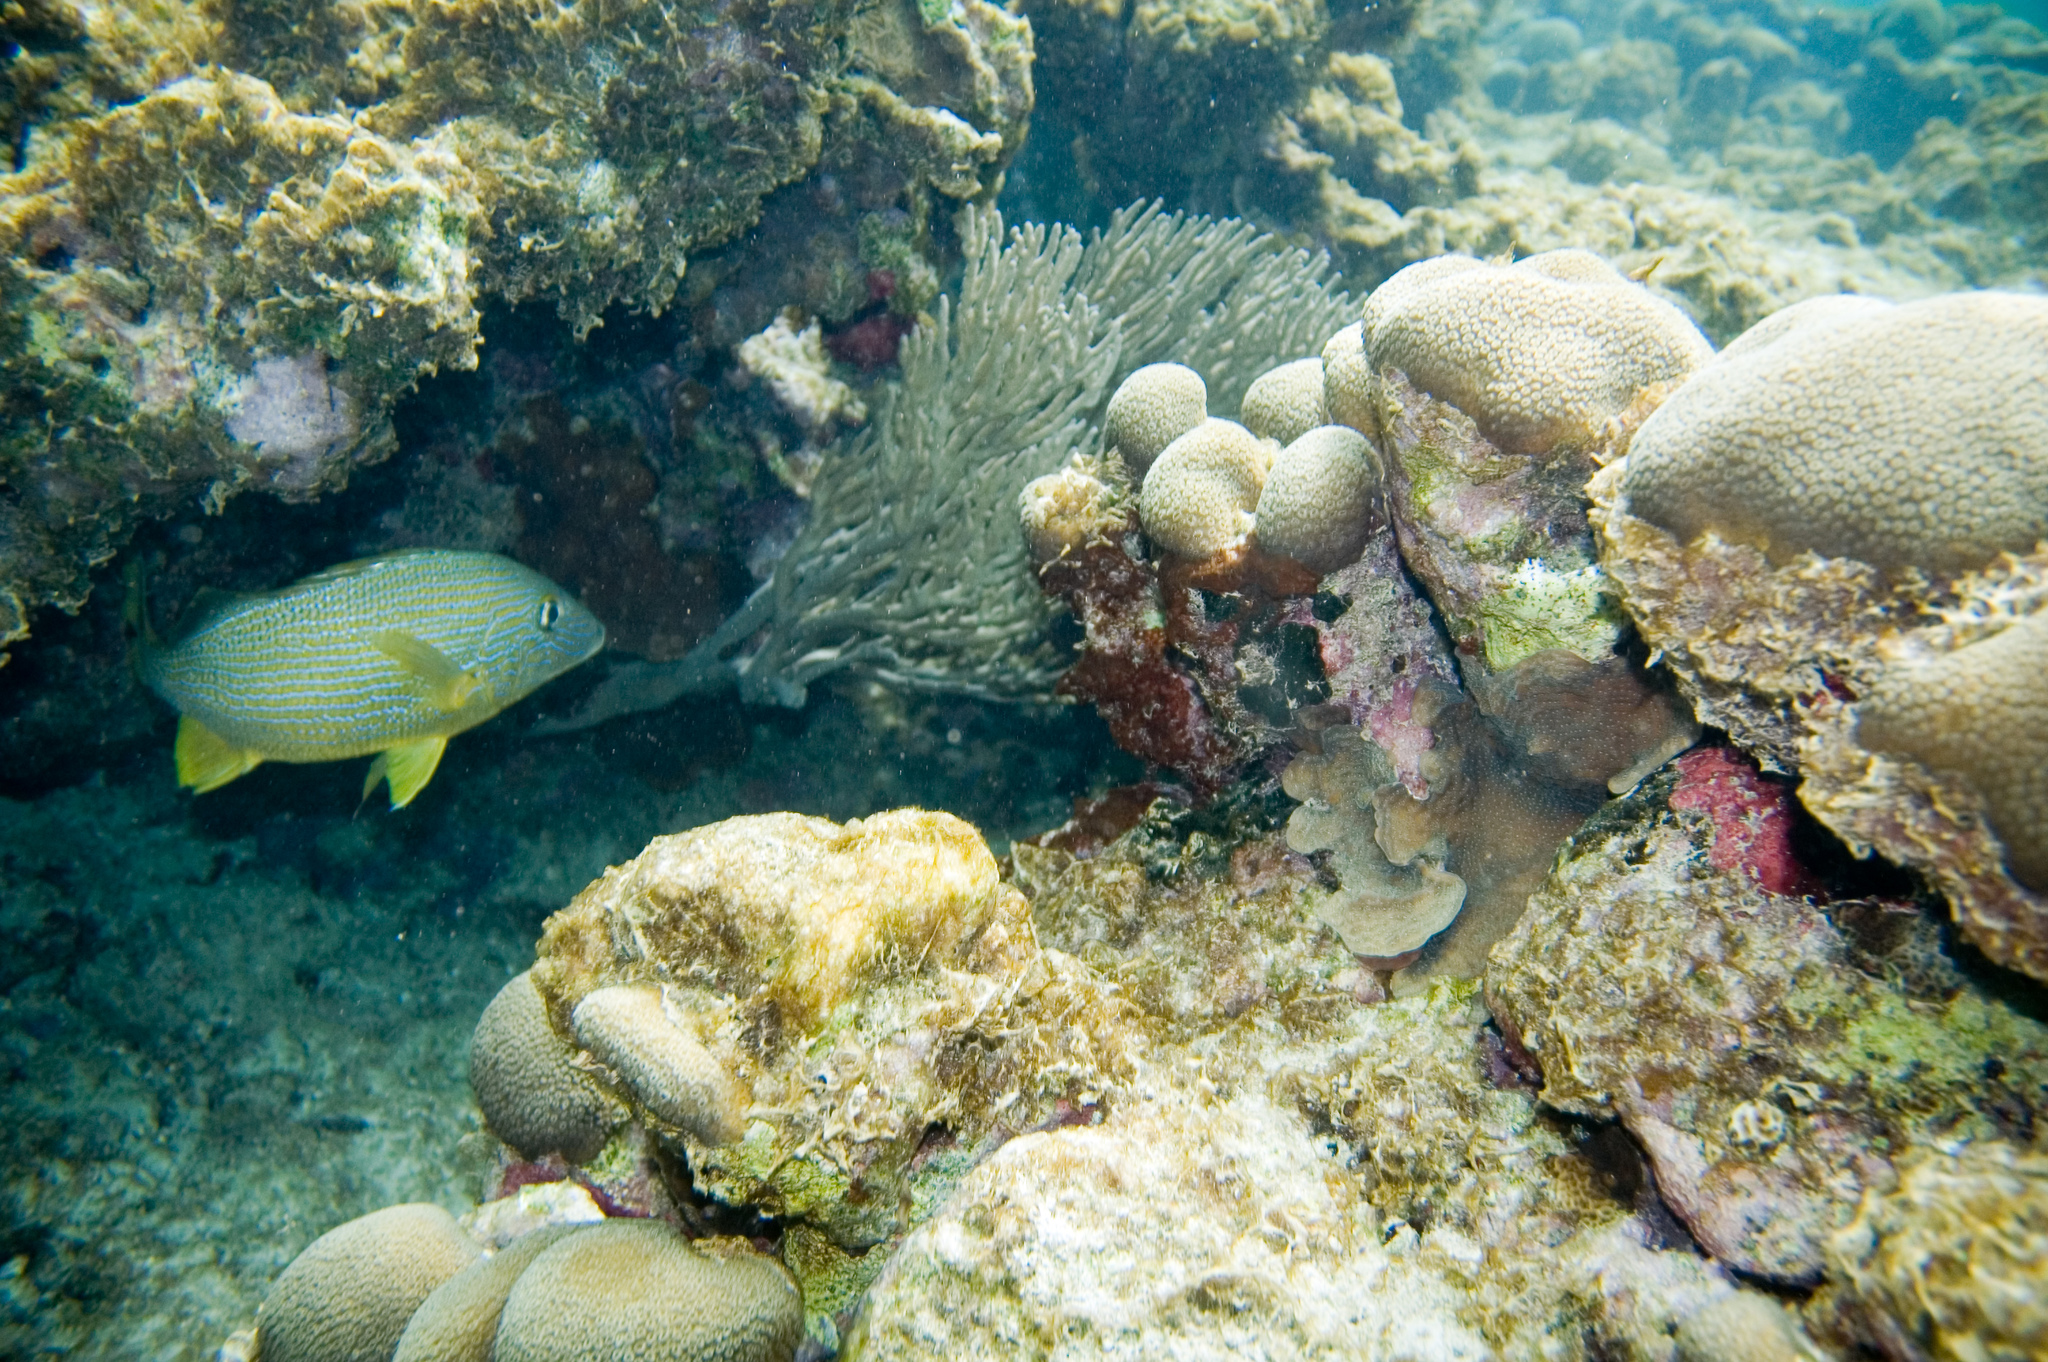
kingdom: Animalia
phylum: Chordata
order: Perciformes
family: Haemulidae
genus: Haemulon
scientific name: Haemulon sciurus
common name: Bluestriped grunt
